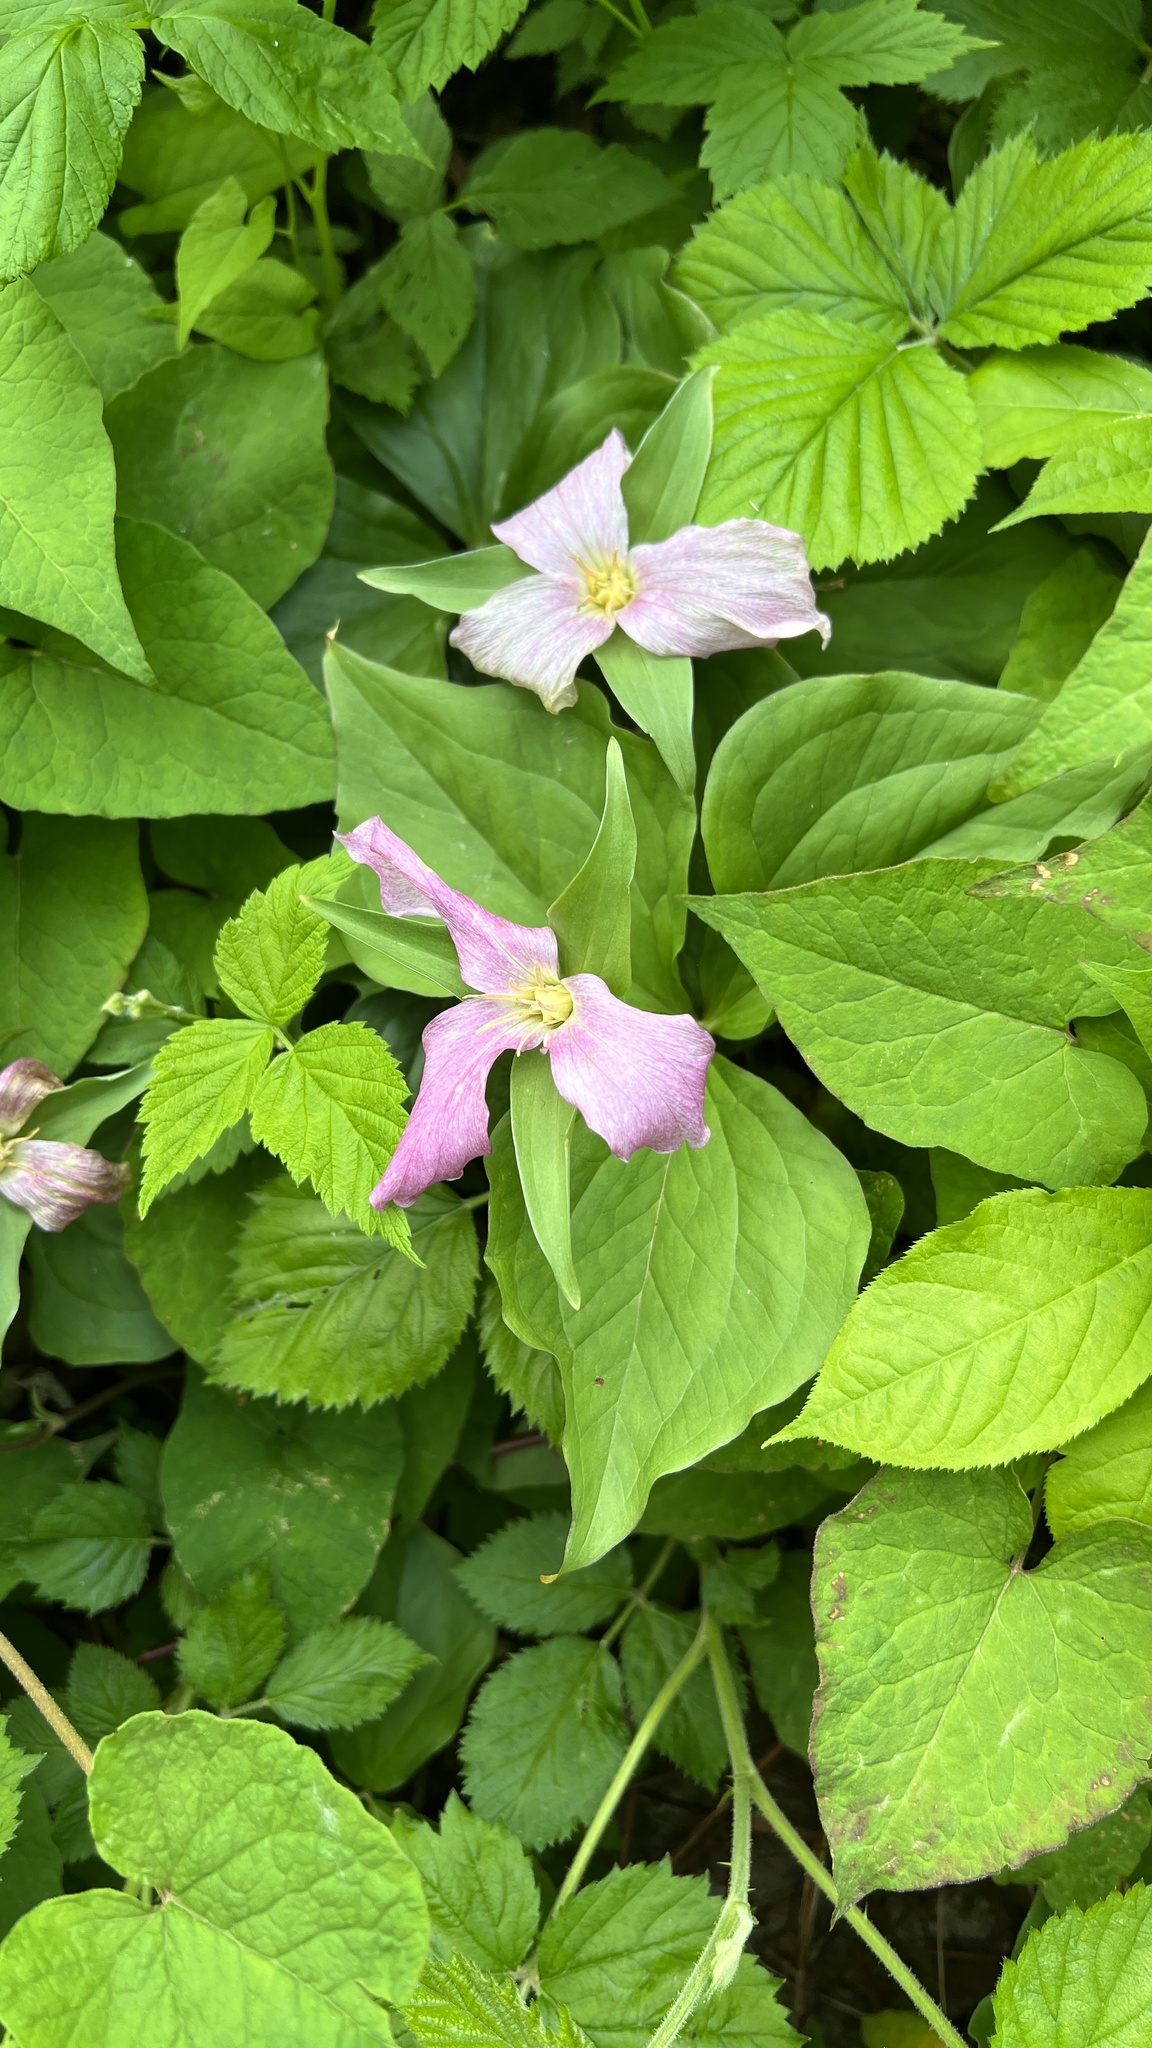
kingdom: Plantae
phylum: Tracheophyta
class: Liliopsida
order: Liliales
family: Melanthiaceae
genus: Trillium
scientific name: Trillium grandiflorum
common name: Great white trillium
